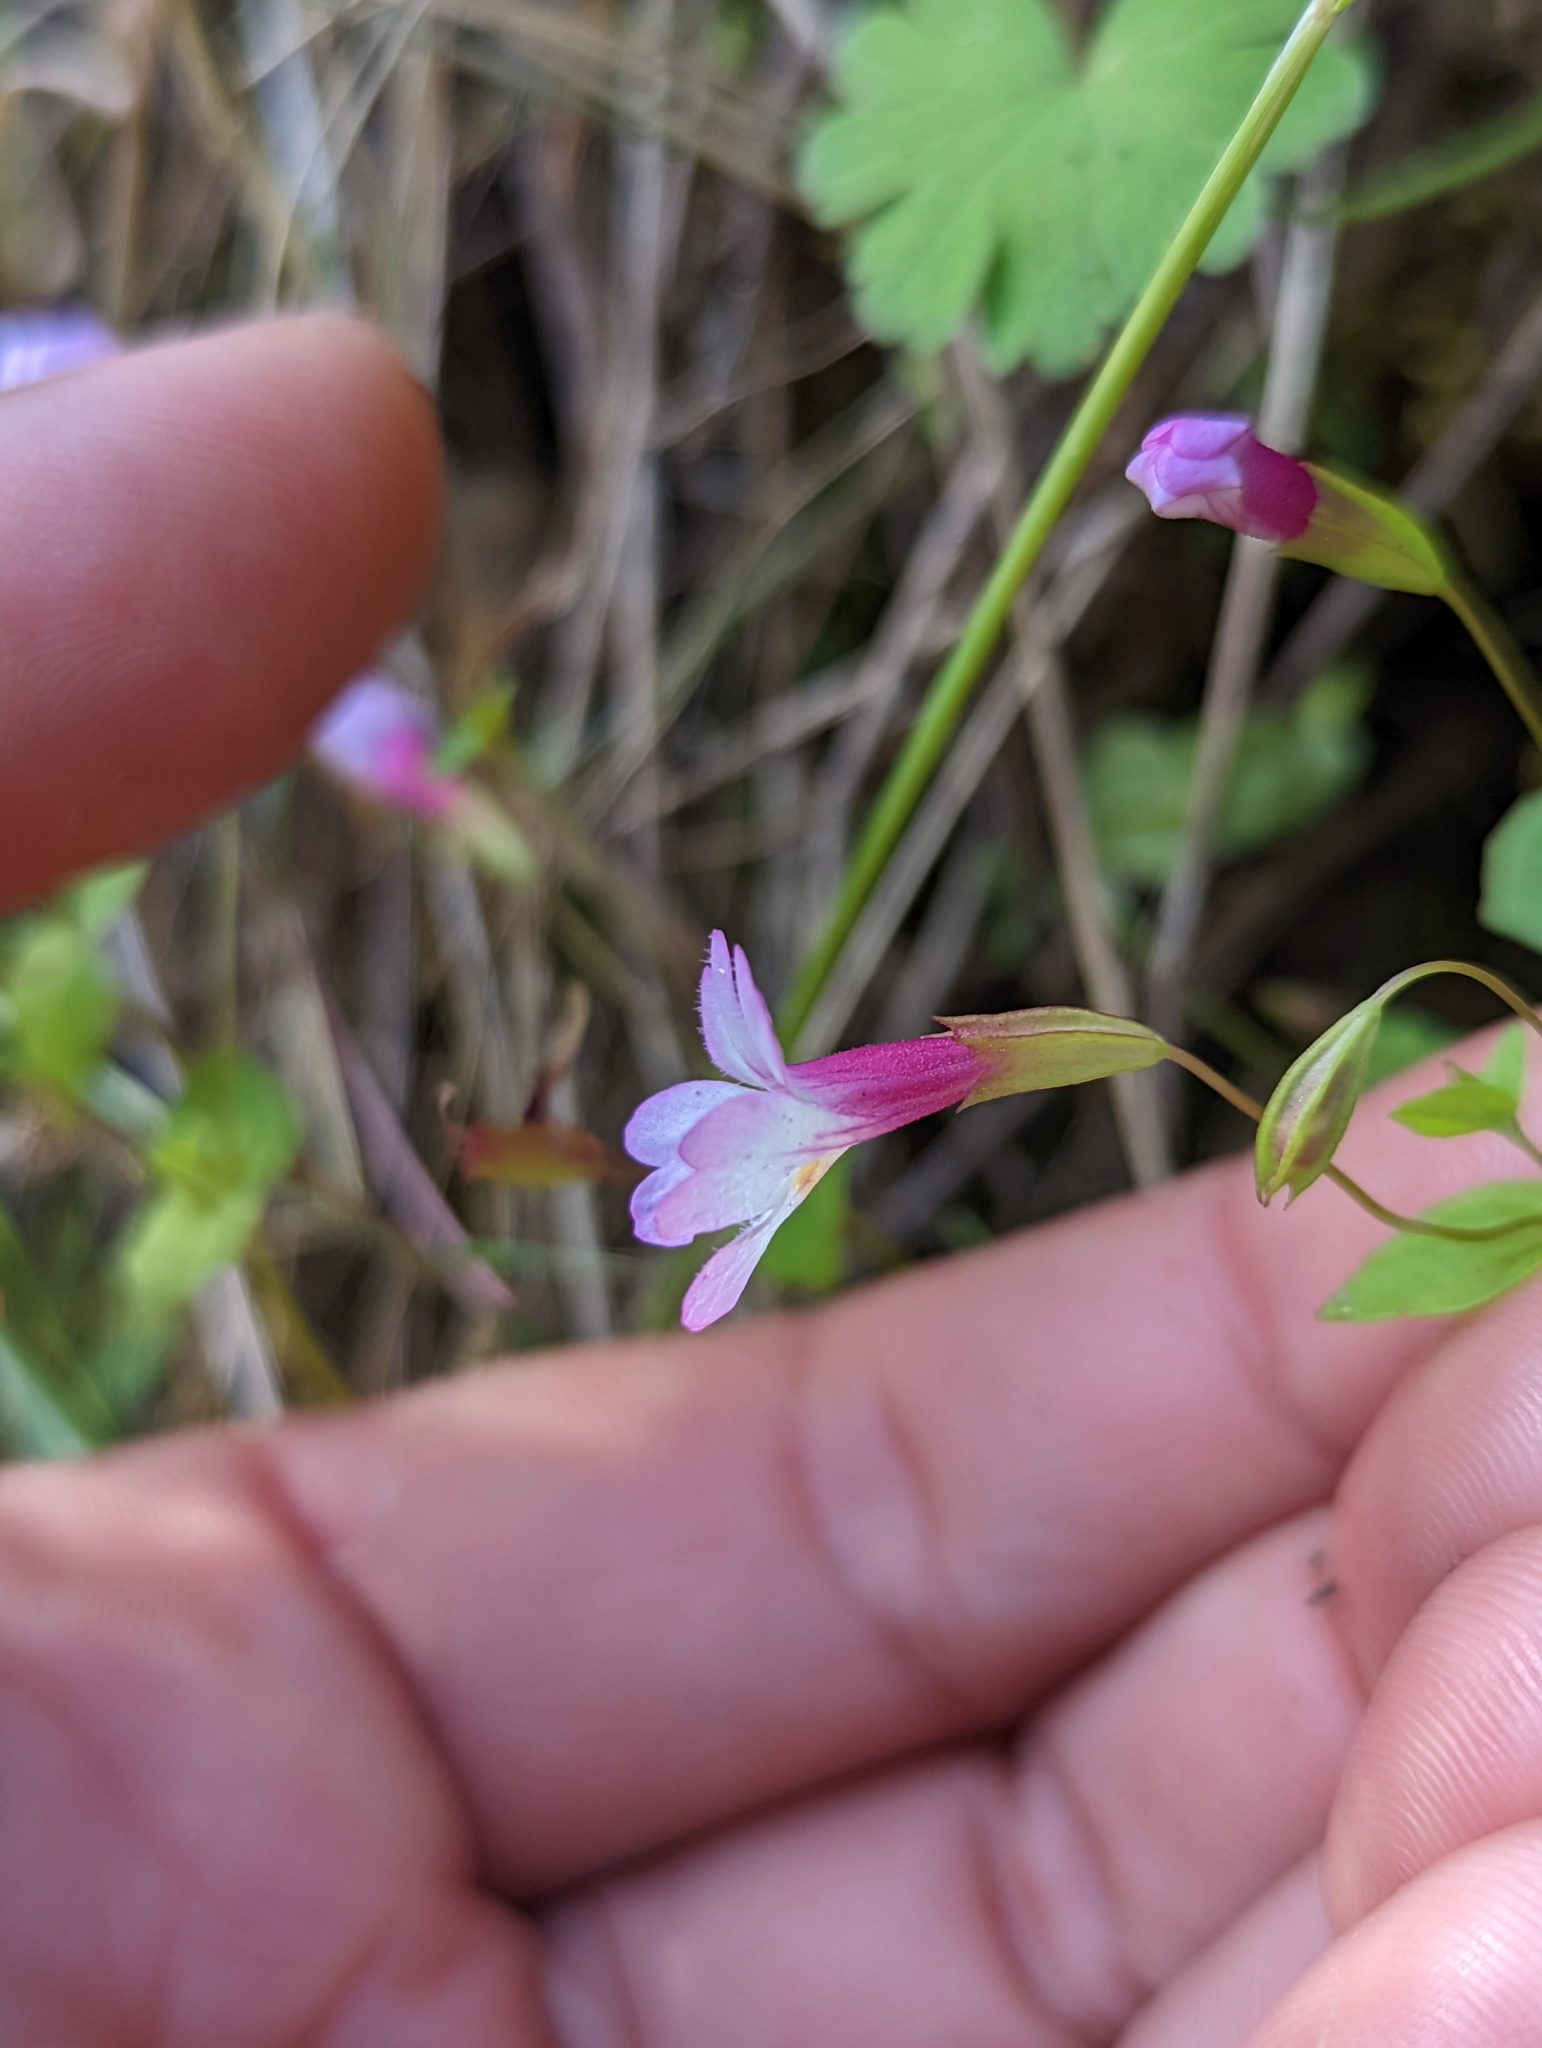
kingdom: Plantae
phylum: Tracheophyta
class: Magnoliopsida
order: Lamiales
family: Phrymaceae
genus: Erythranthe
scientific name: Erythranthe acutidens
